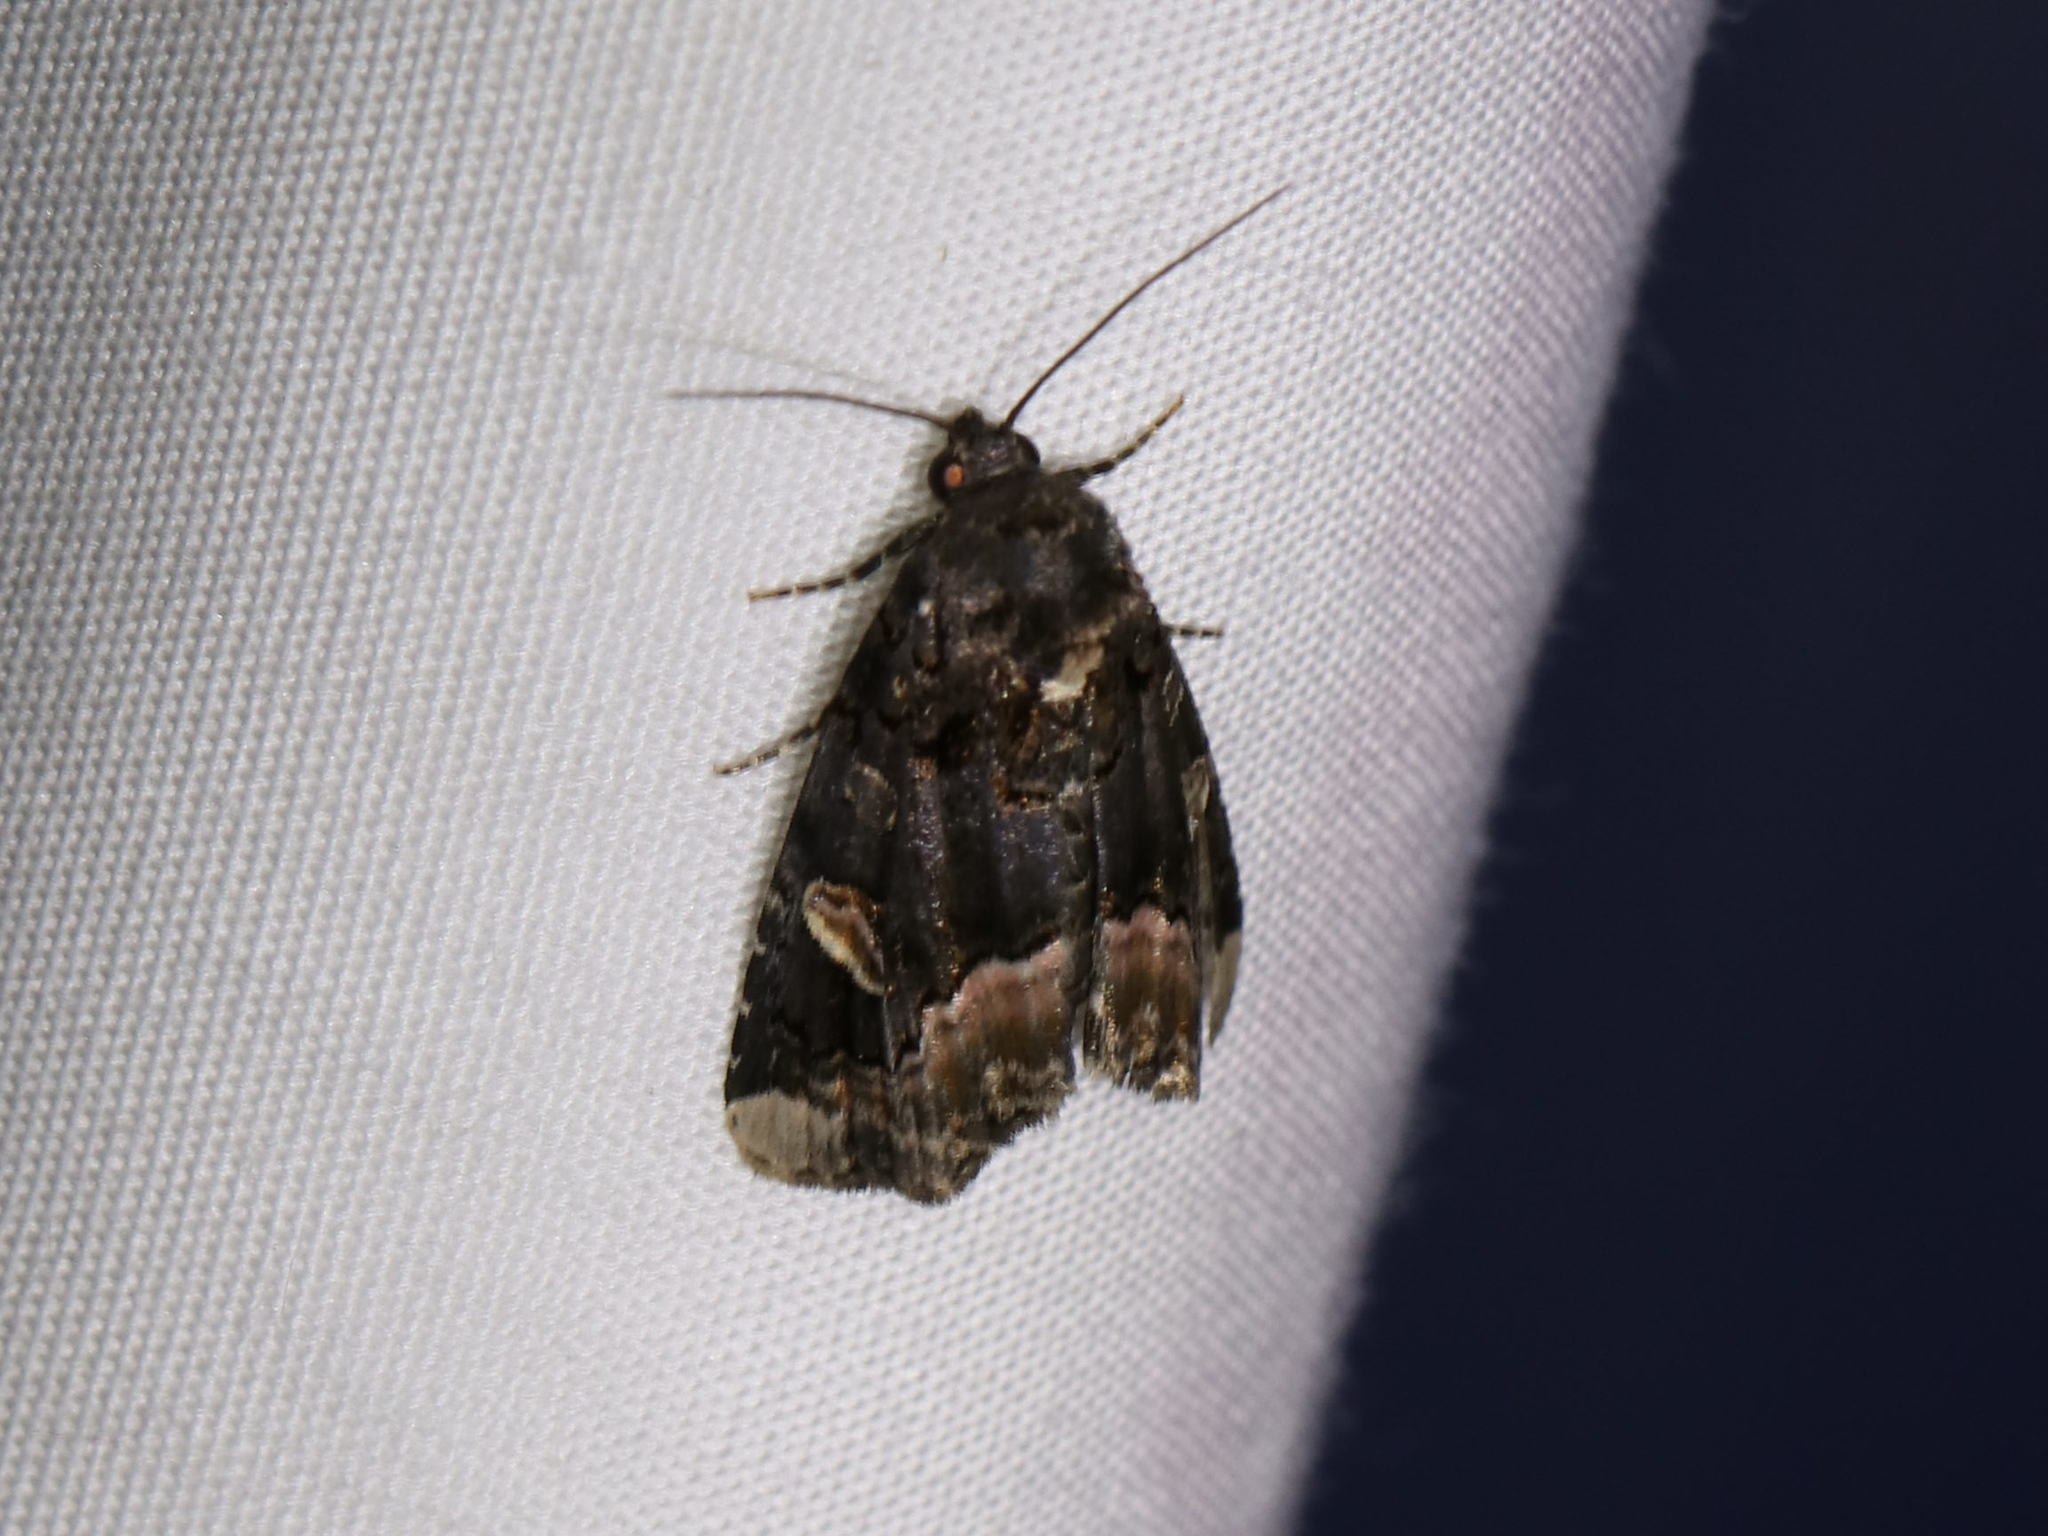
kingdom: Animalia
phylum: Arthropoda
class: Insecta
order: Lepidoptera
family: Noctuidae
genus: Homophoberia
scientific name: Homophoberia apicosa
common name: Black wedge-spot
